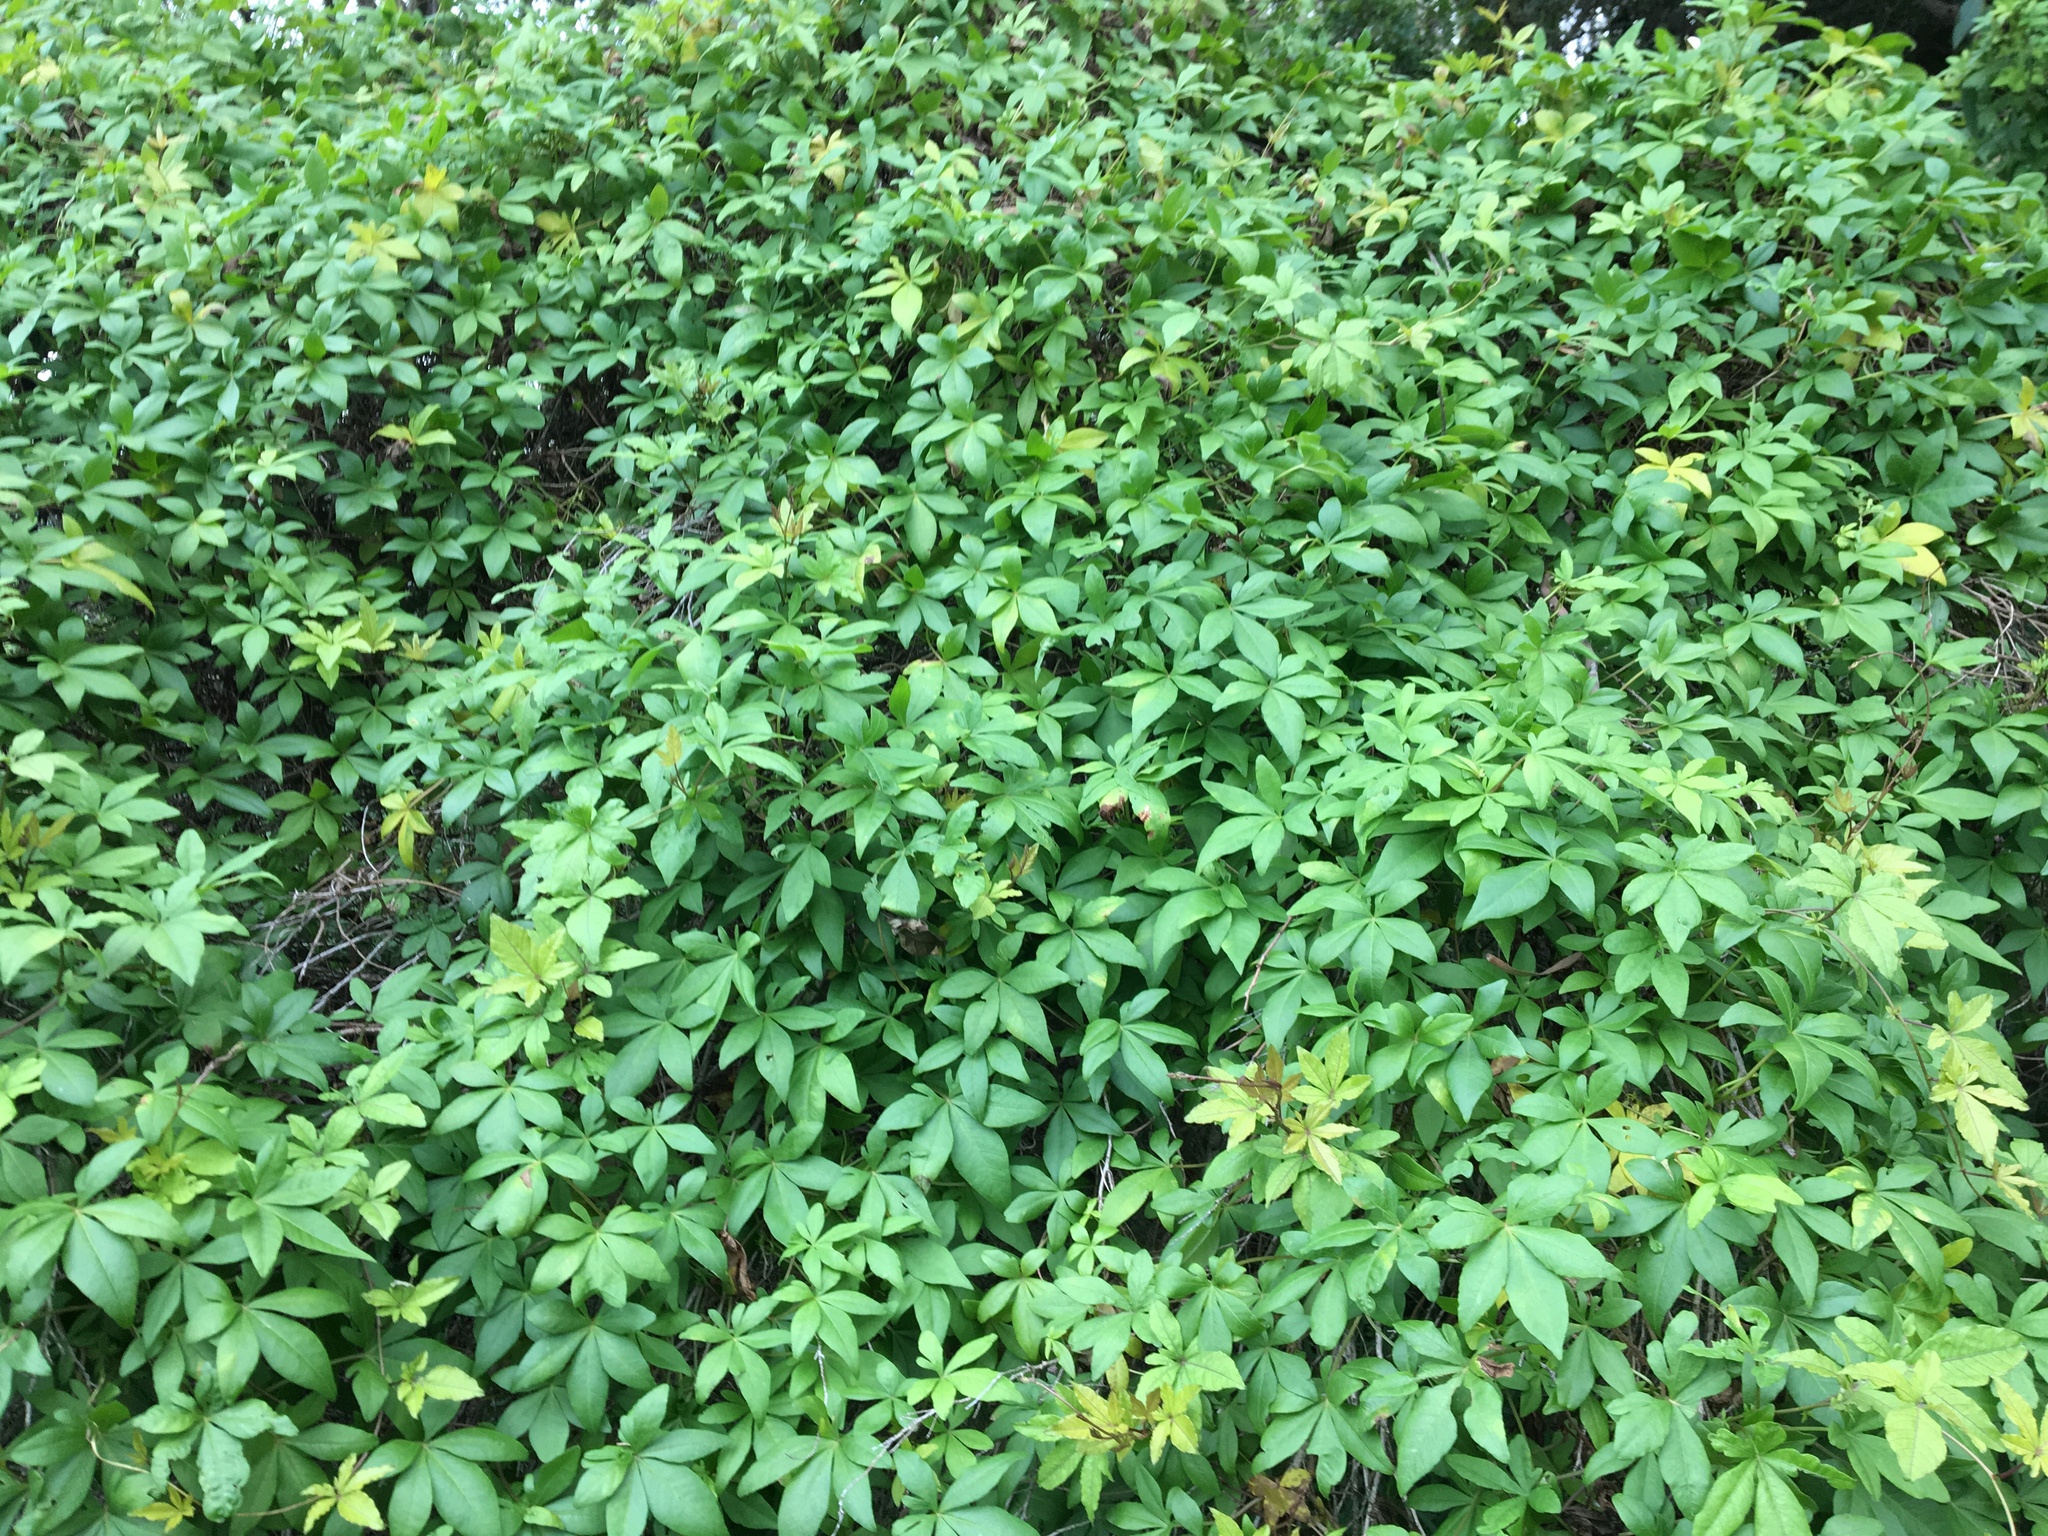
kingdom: Plantae
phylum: Tracheophyta
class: Magnoliopsida
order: Solanales
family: Convolvulaceae
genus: Ipomoea
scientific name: Ipomoea cairica
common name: Mile a minute vine
